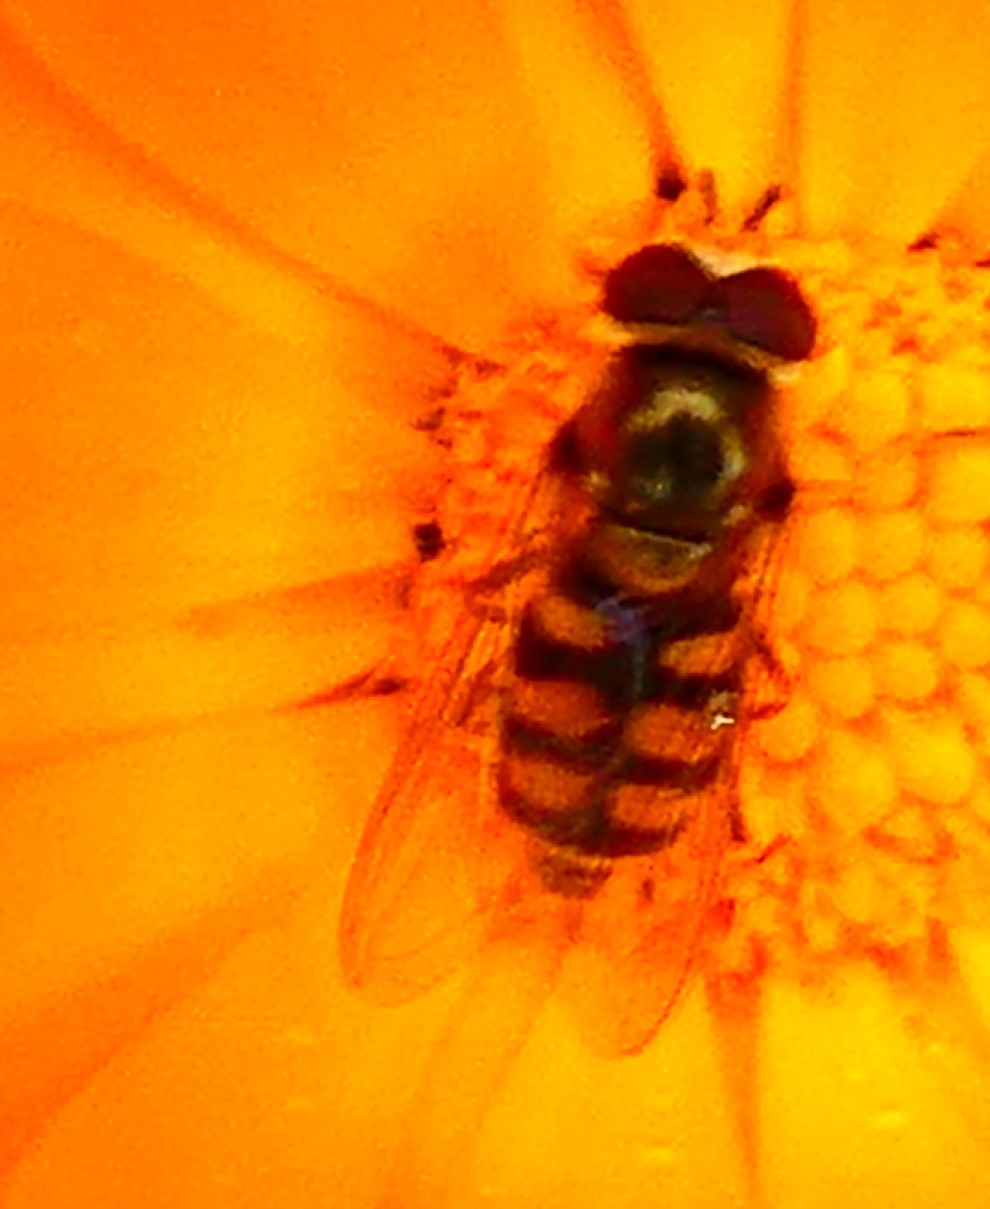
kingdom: Animalia
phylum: Arthropoda
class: Insecta
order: Diptera
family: Syrphidae
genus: Eupeodes
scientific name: Eupeodes corollae
